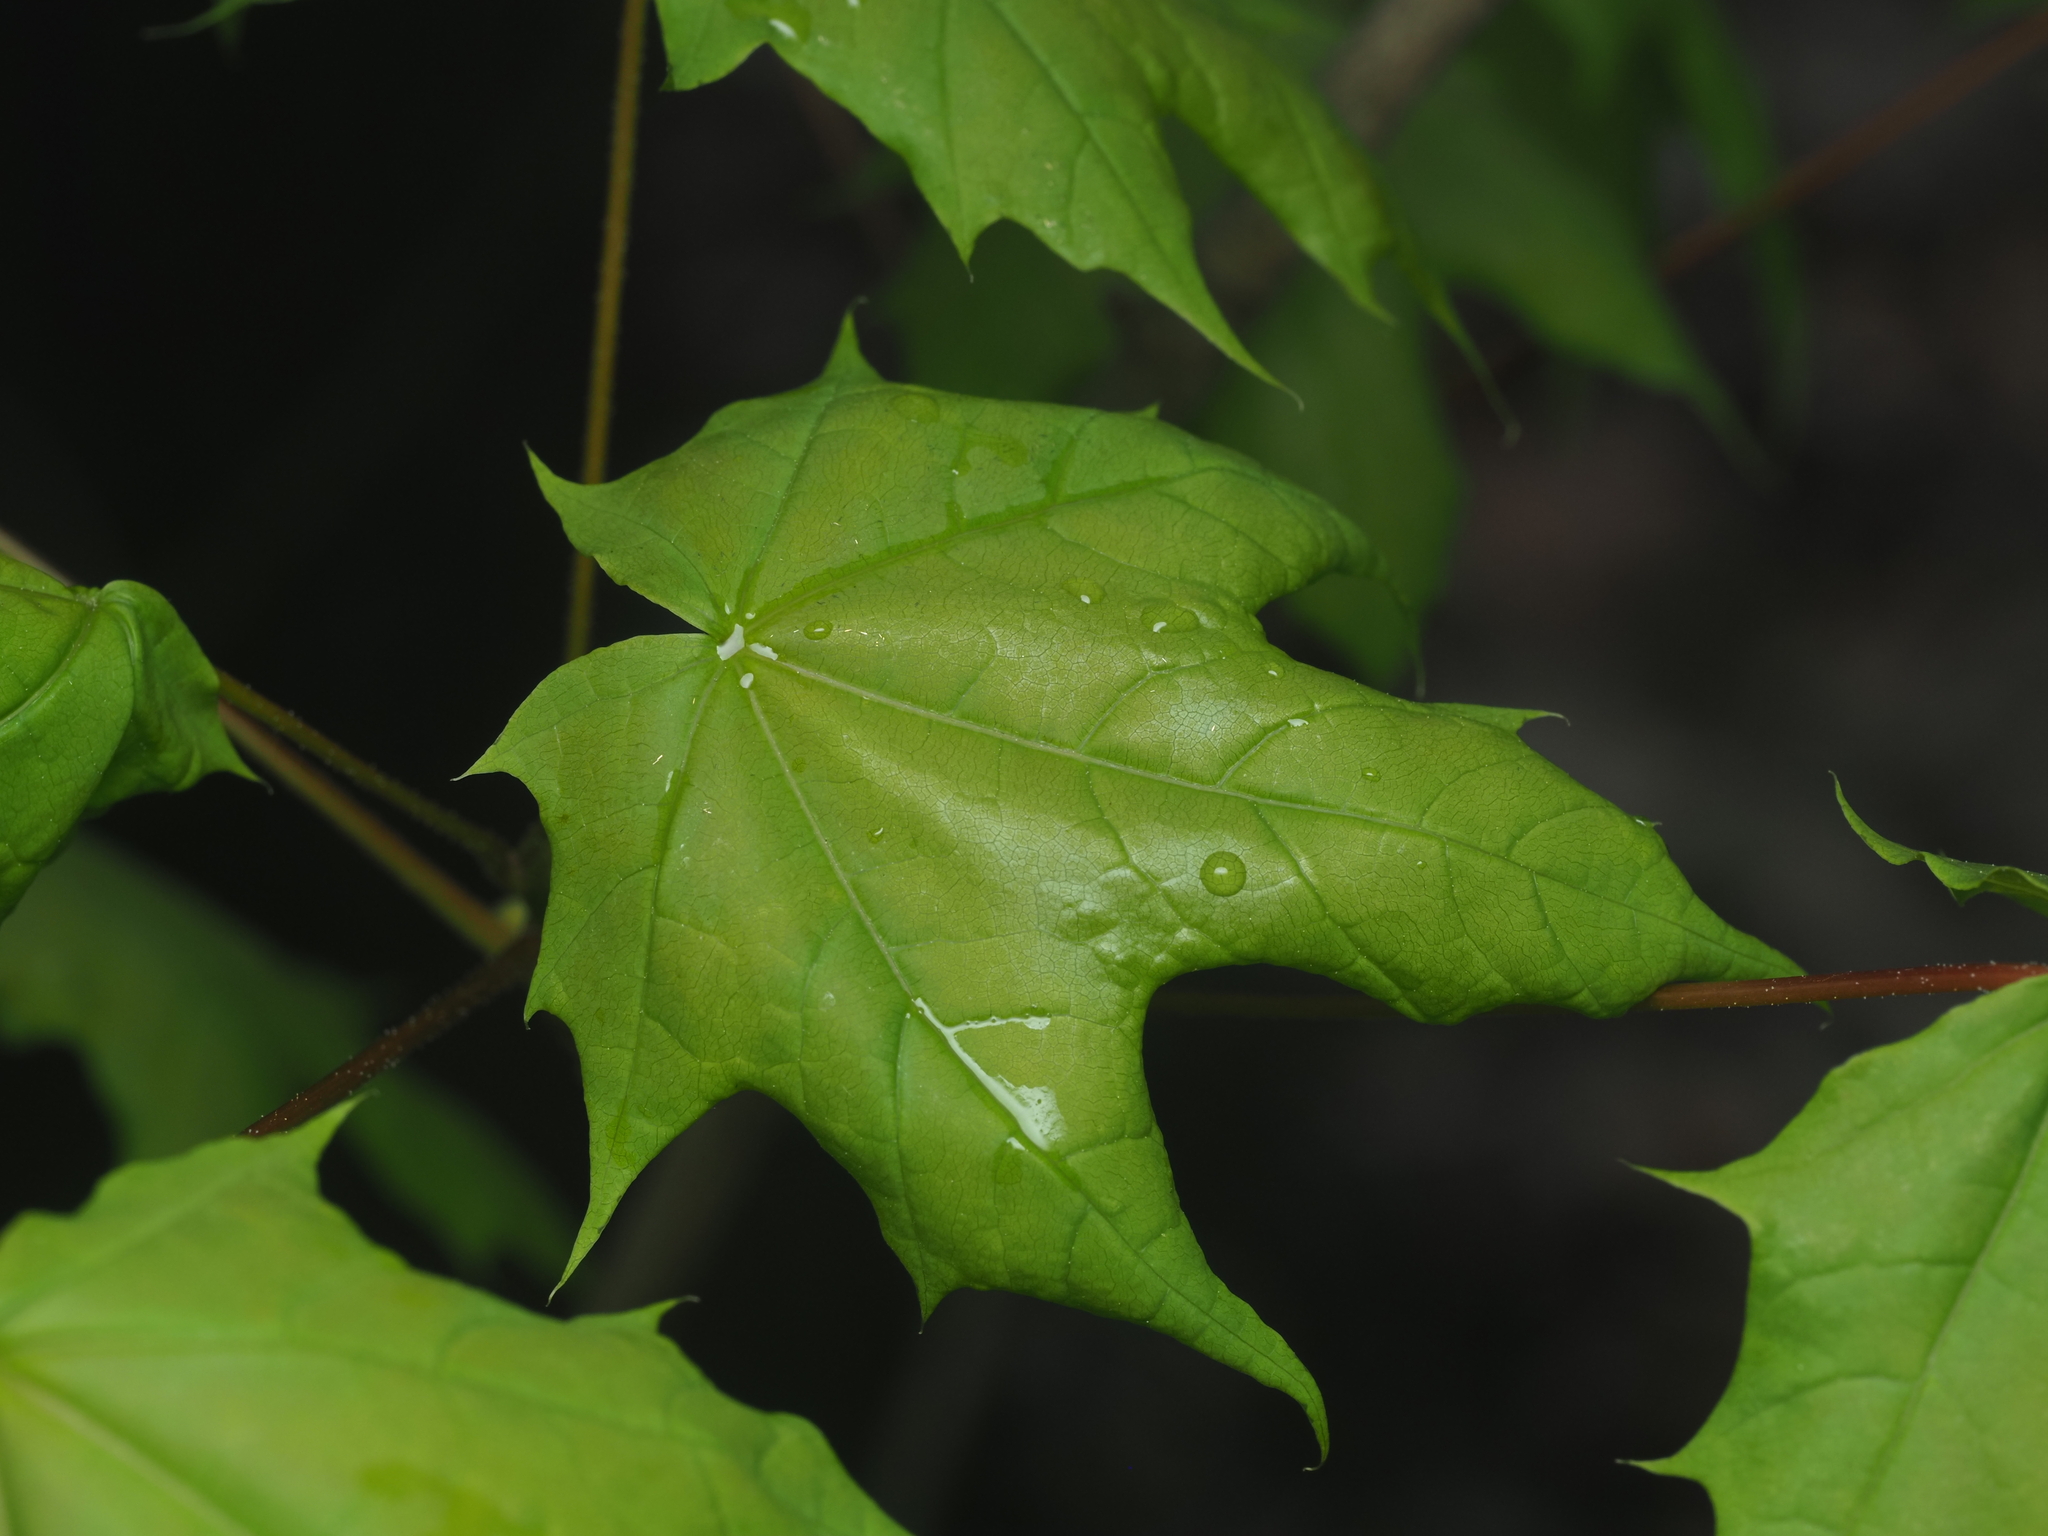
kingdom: Plantae
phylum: Tracheophyta
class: Magnoliopsida
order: Sapindales
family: Sapindaceae
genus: Acer
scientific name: Acer platanoides
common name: Norway maple
